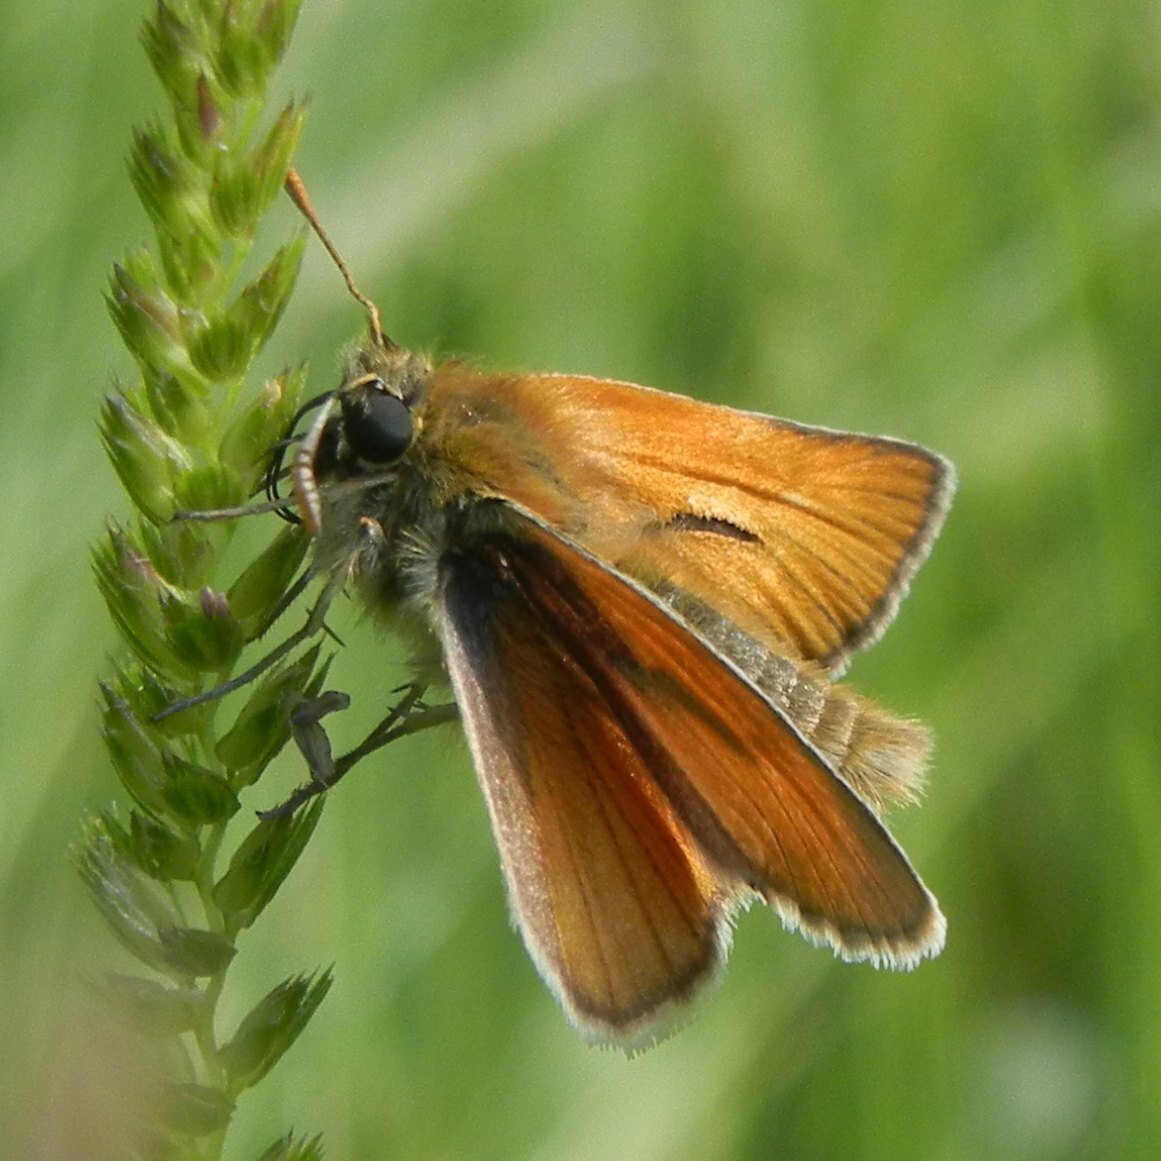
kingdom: Animalia
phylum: Arthropoda
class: Insecta
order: Lepidoptera
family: Hesperiidae
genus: Thymelicus
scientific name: Thymelicus sylvestris
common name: Small skipper
